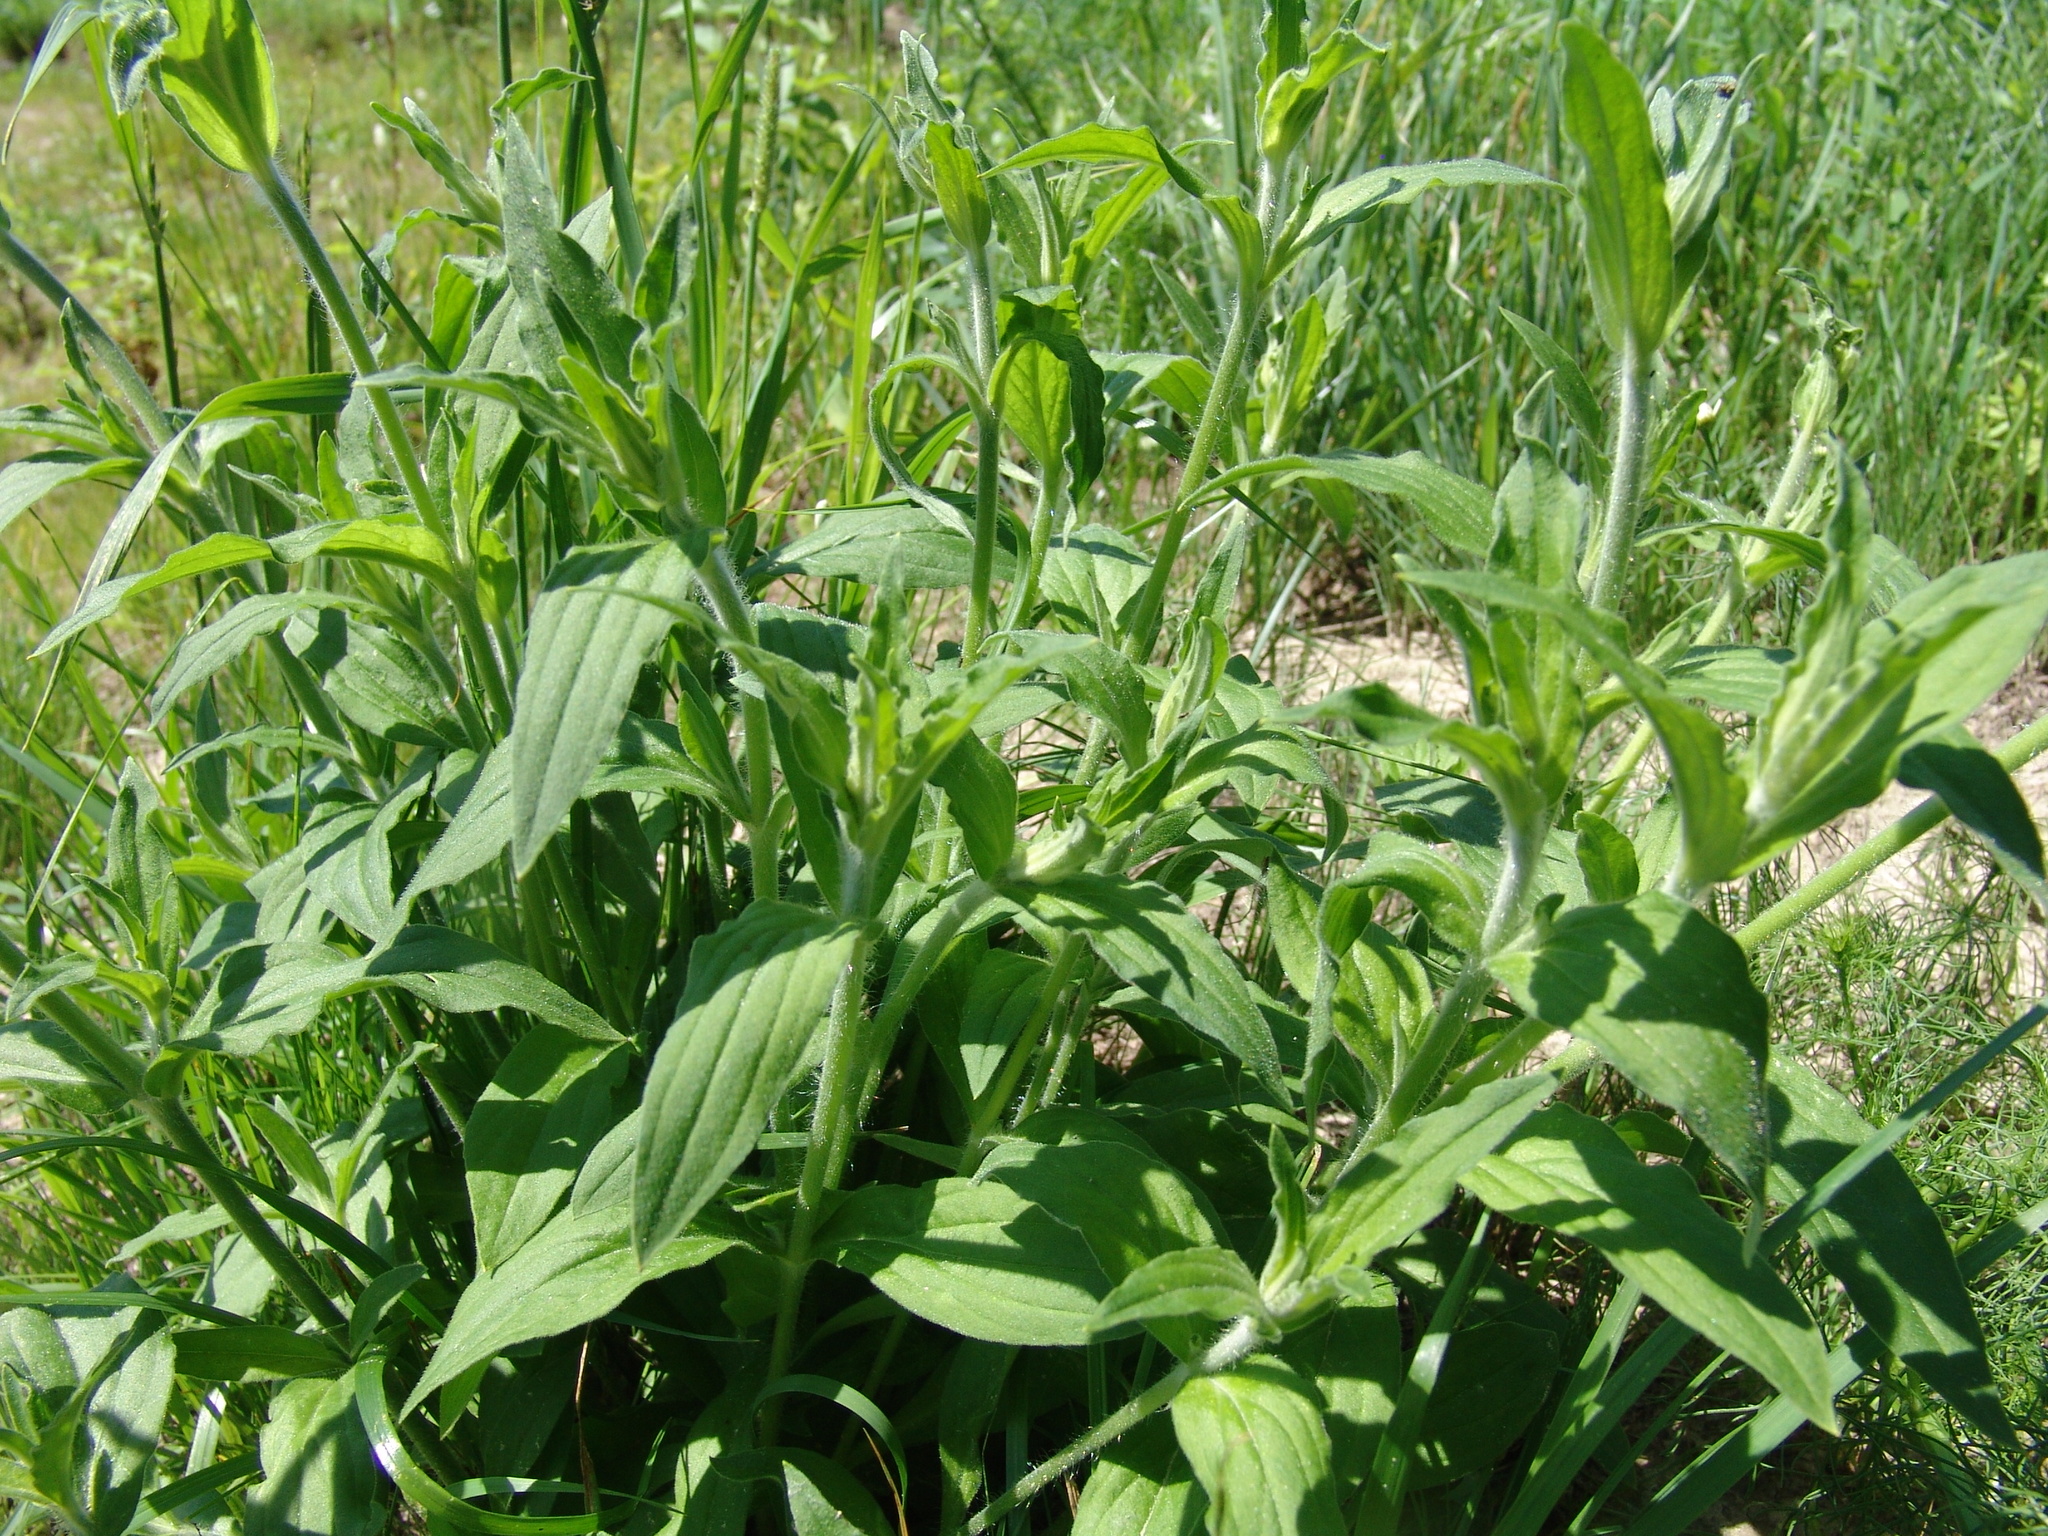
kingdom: Plantae
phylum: Tracheophyta
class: Magnoliopsida
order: Caryophyllales
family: Caryophyllaceae
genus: Silene
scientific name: Silene latifolia
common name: White campion
